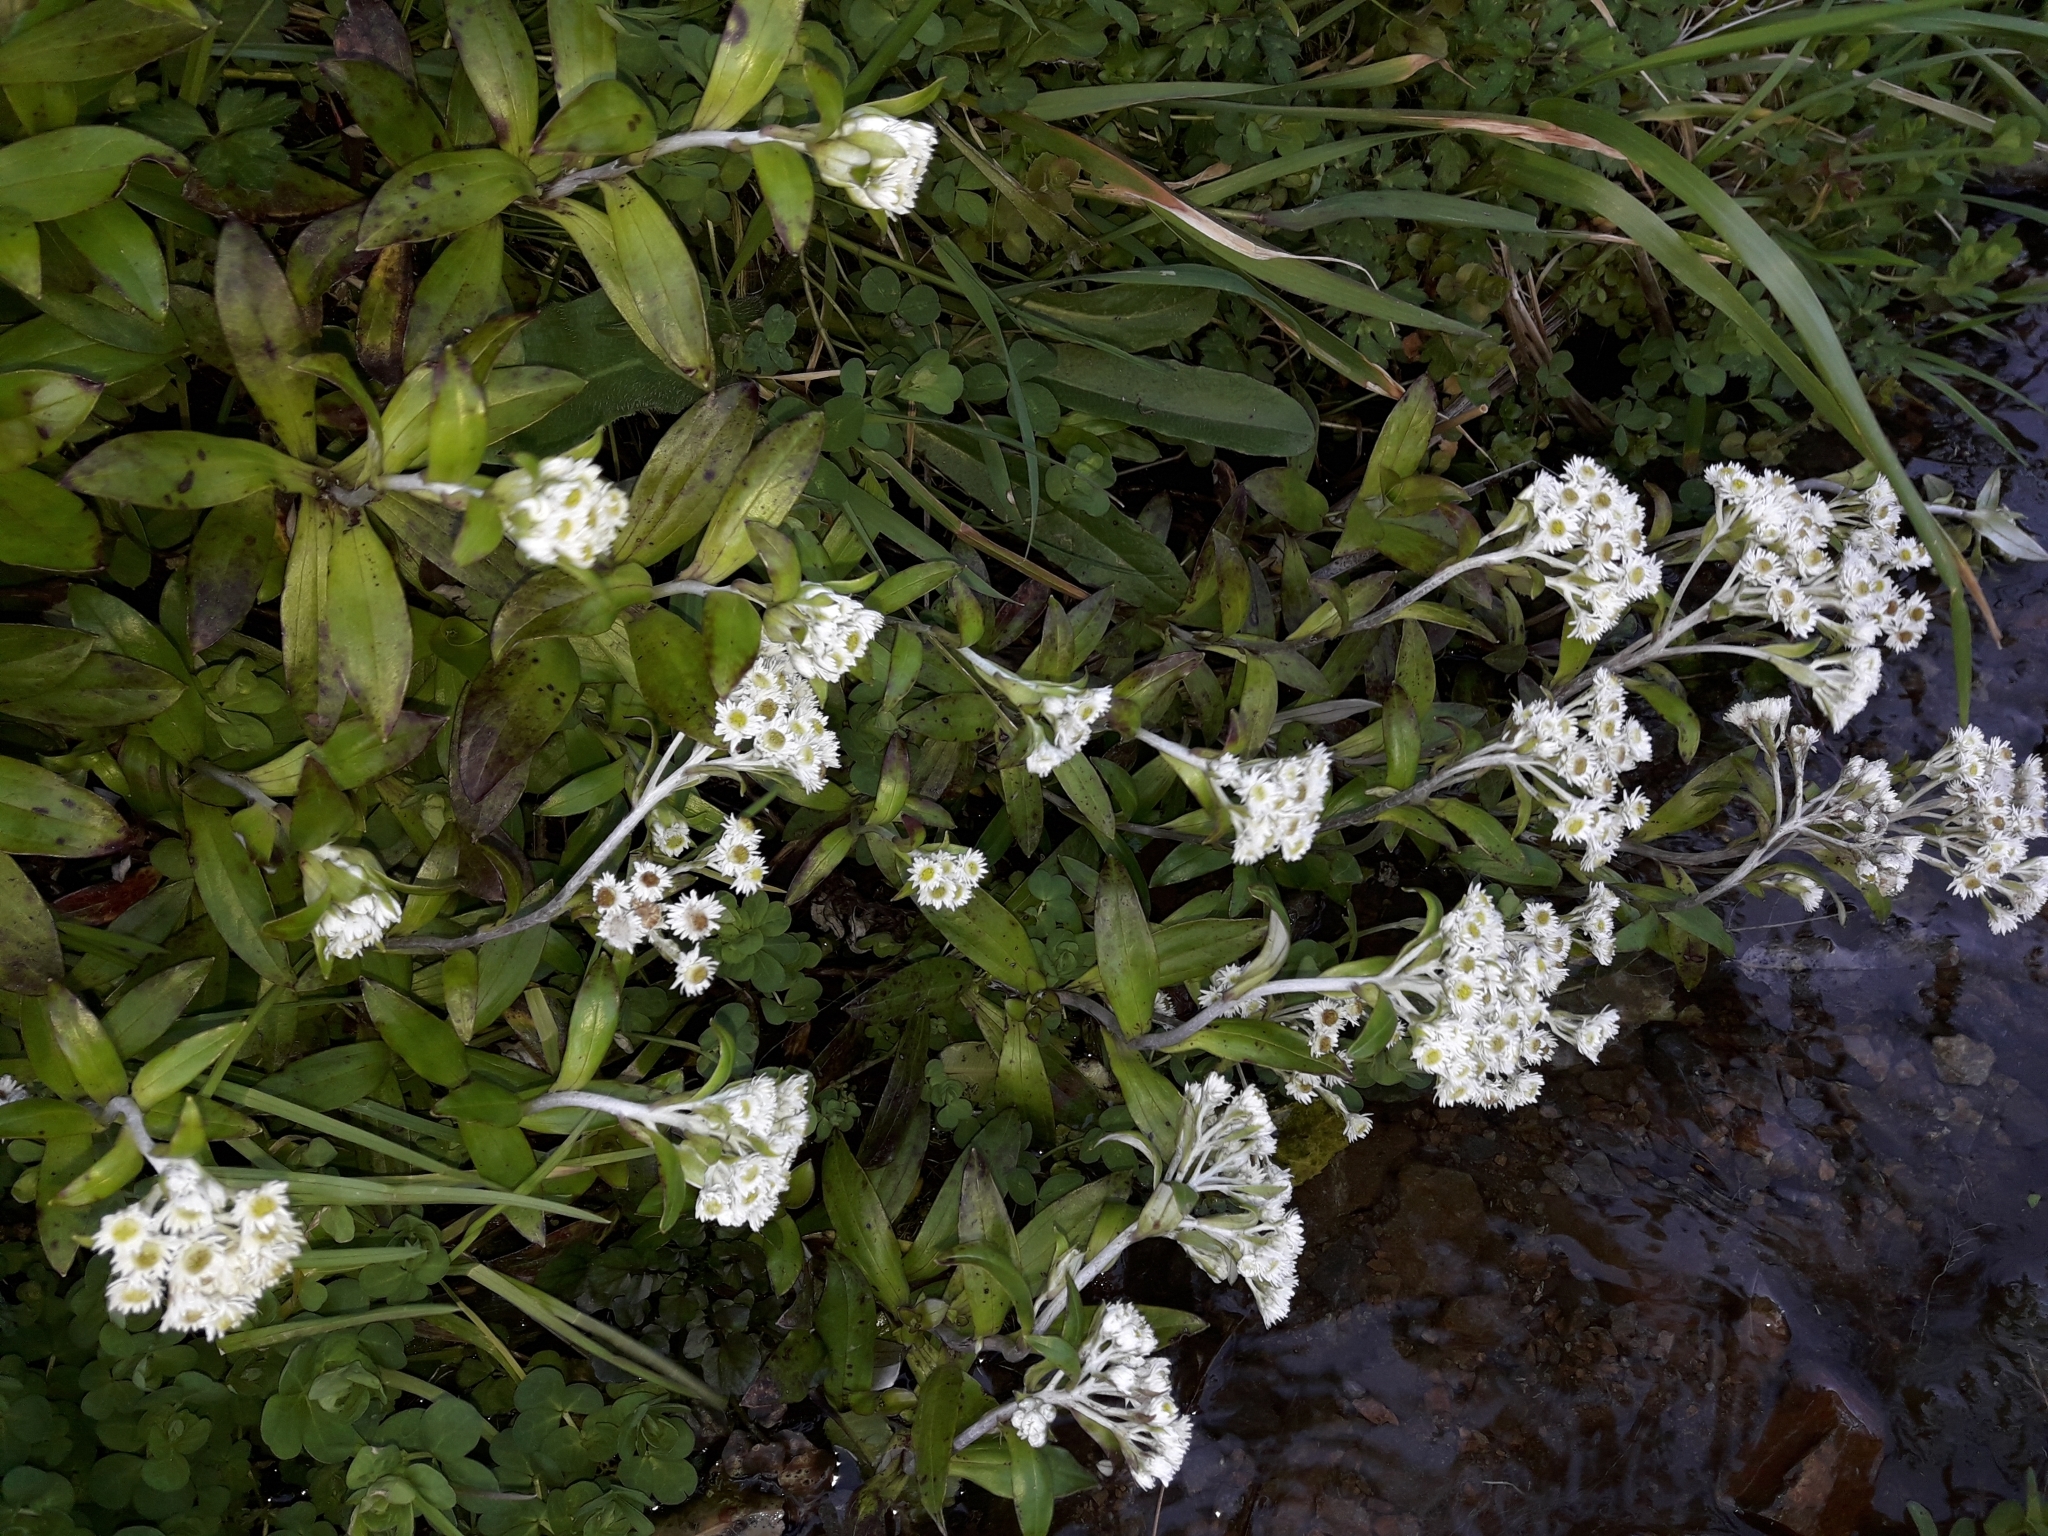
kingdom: Plantae
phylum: Tracheophyta
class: Magnoliopsida
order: Asterales
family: Asteraceae
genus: Anaphalioides
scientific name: Anaphalioides trinervis
